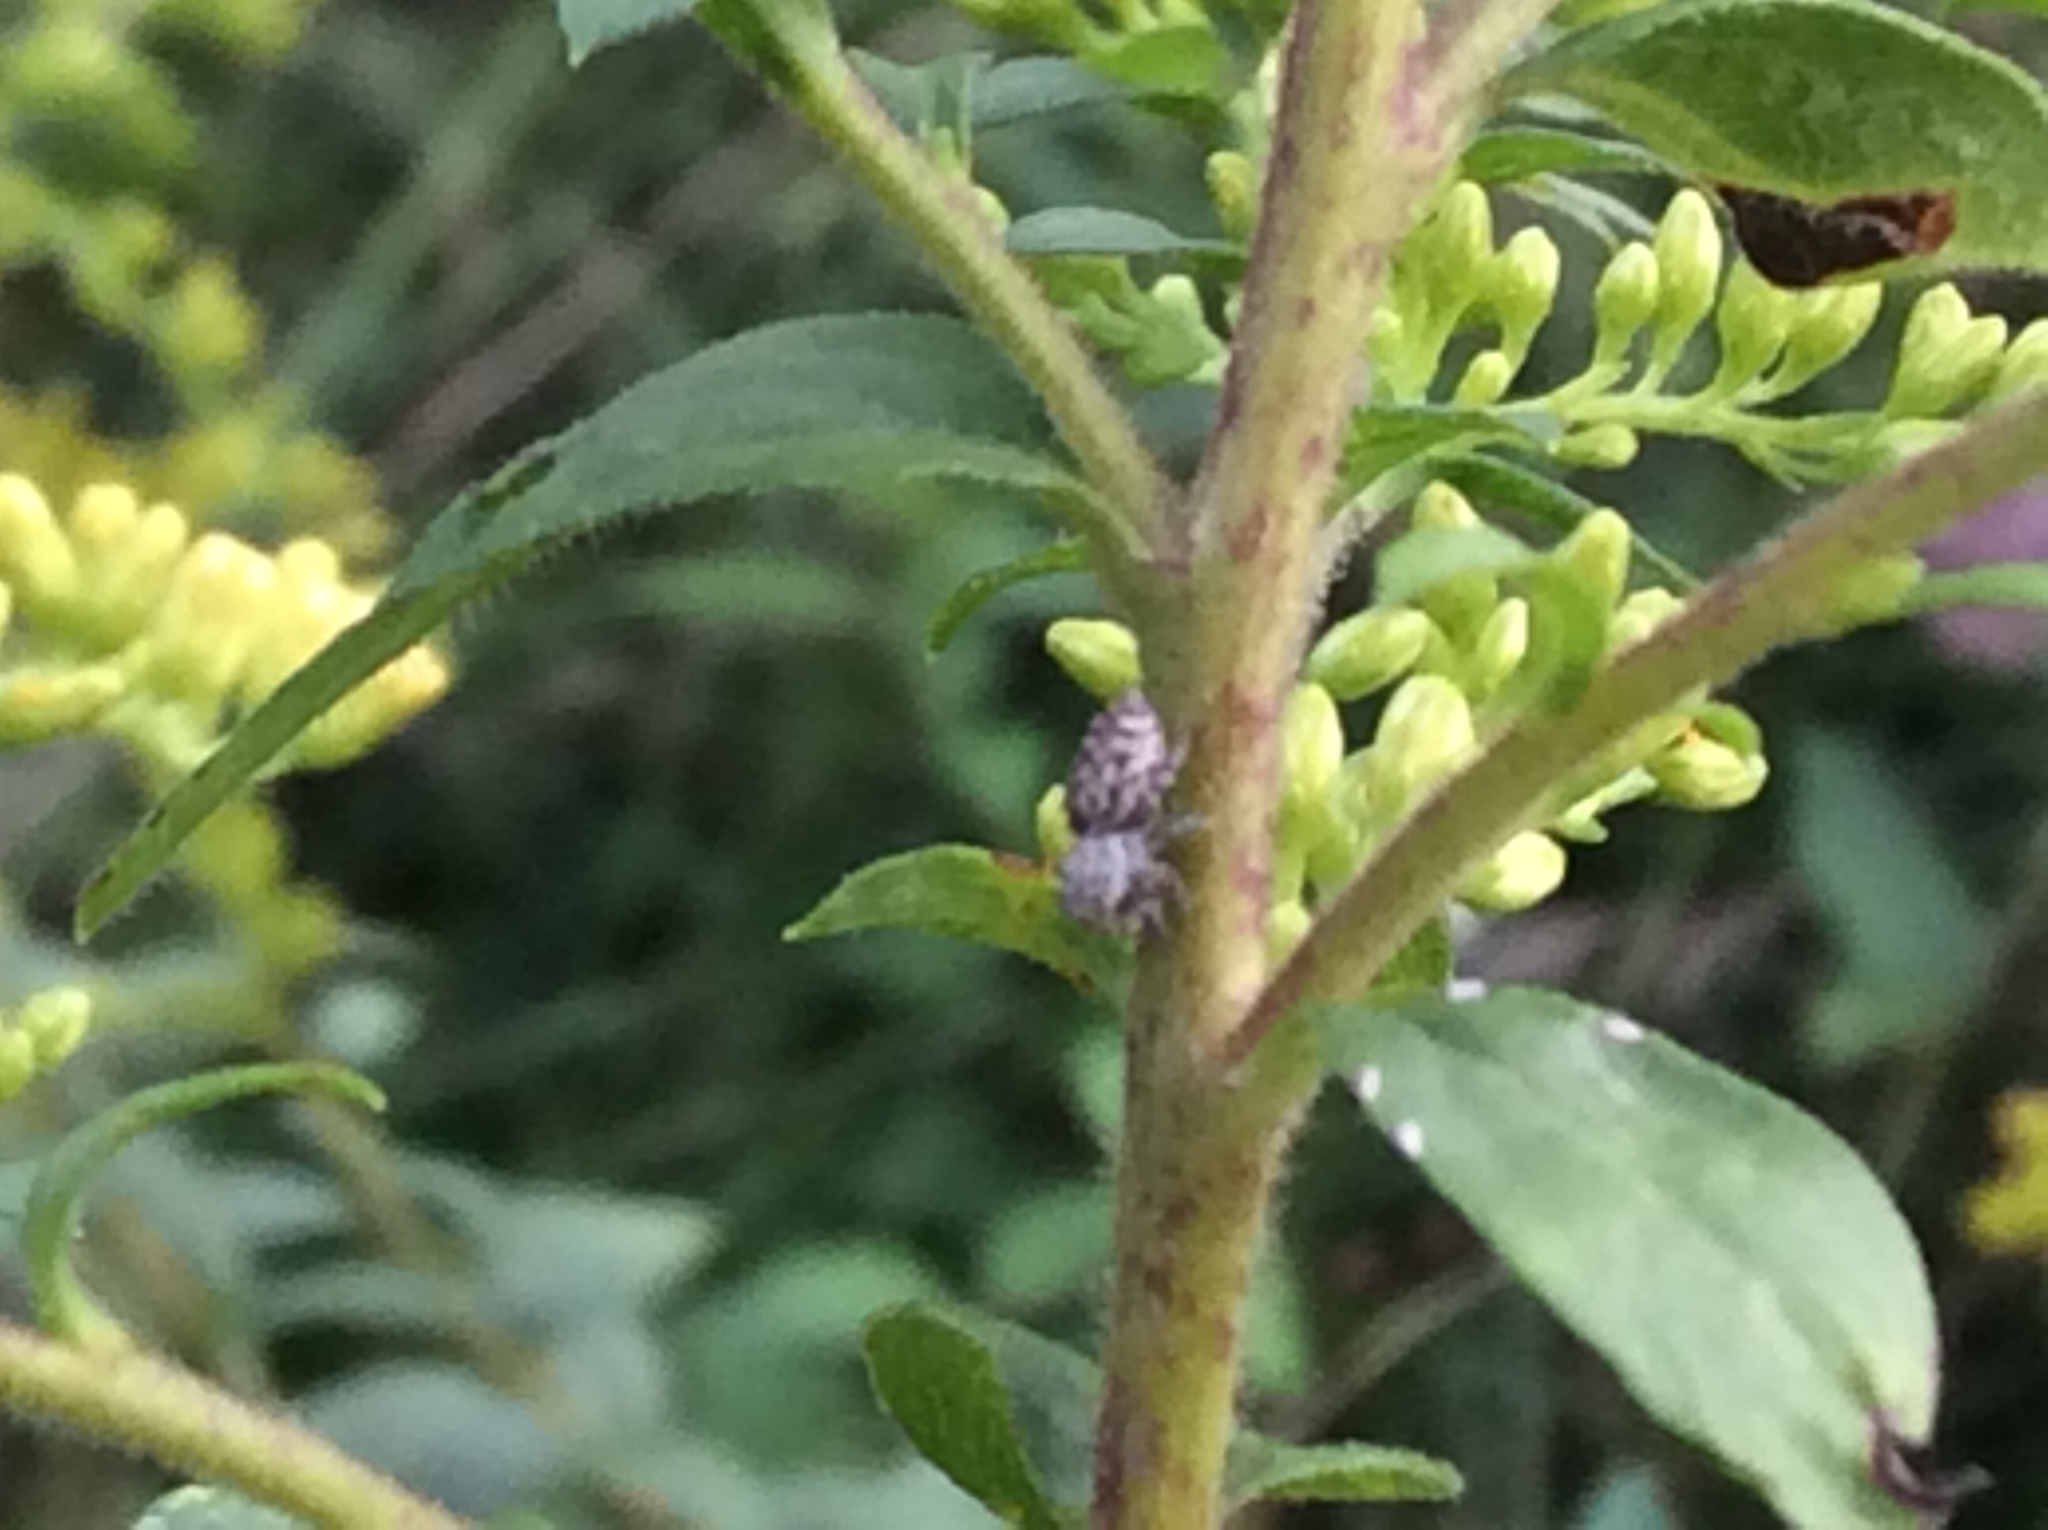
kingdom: Animalia
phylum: Arthropoda
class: Arachnida
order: Araneae
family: Salticidae
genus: Pelegrina
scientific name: Pelegrina galathea
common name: Jumping spiders
